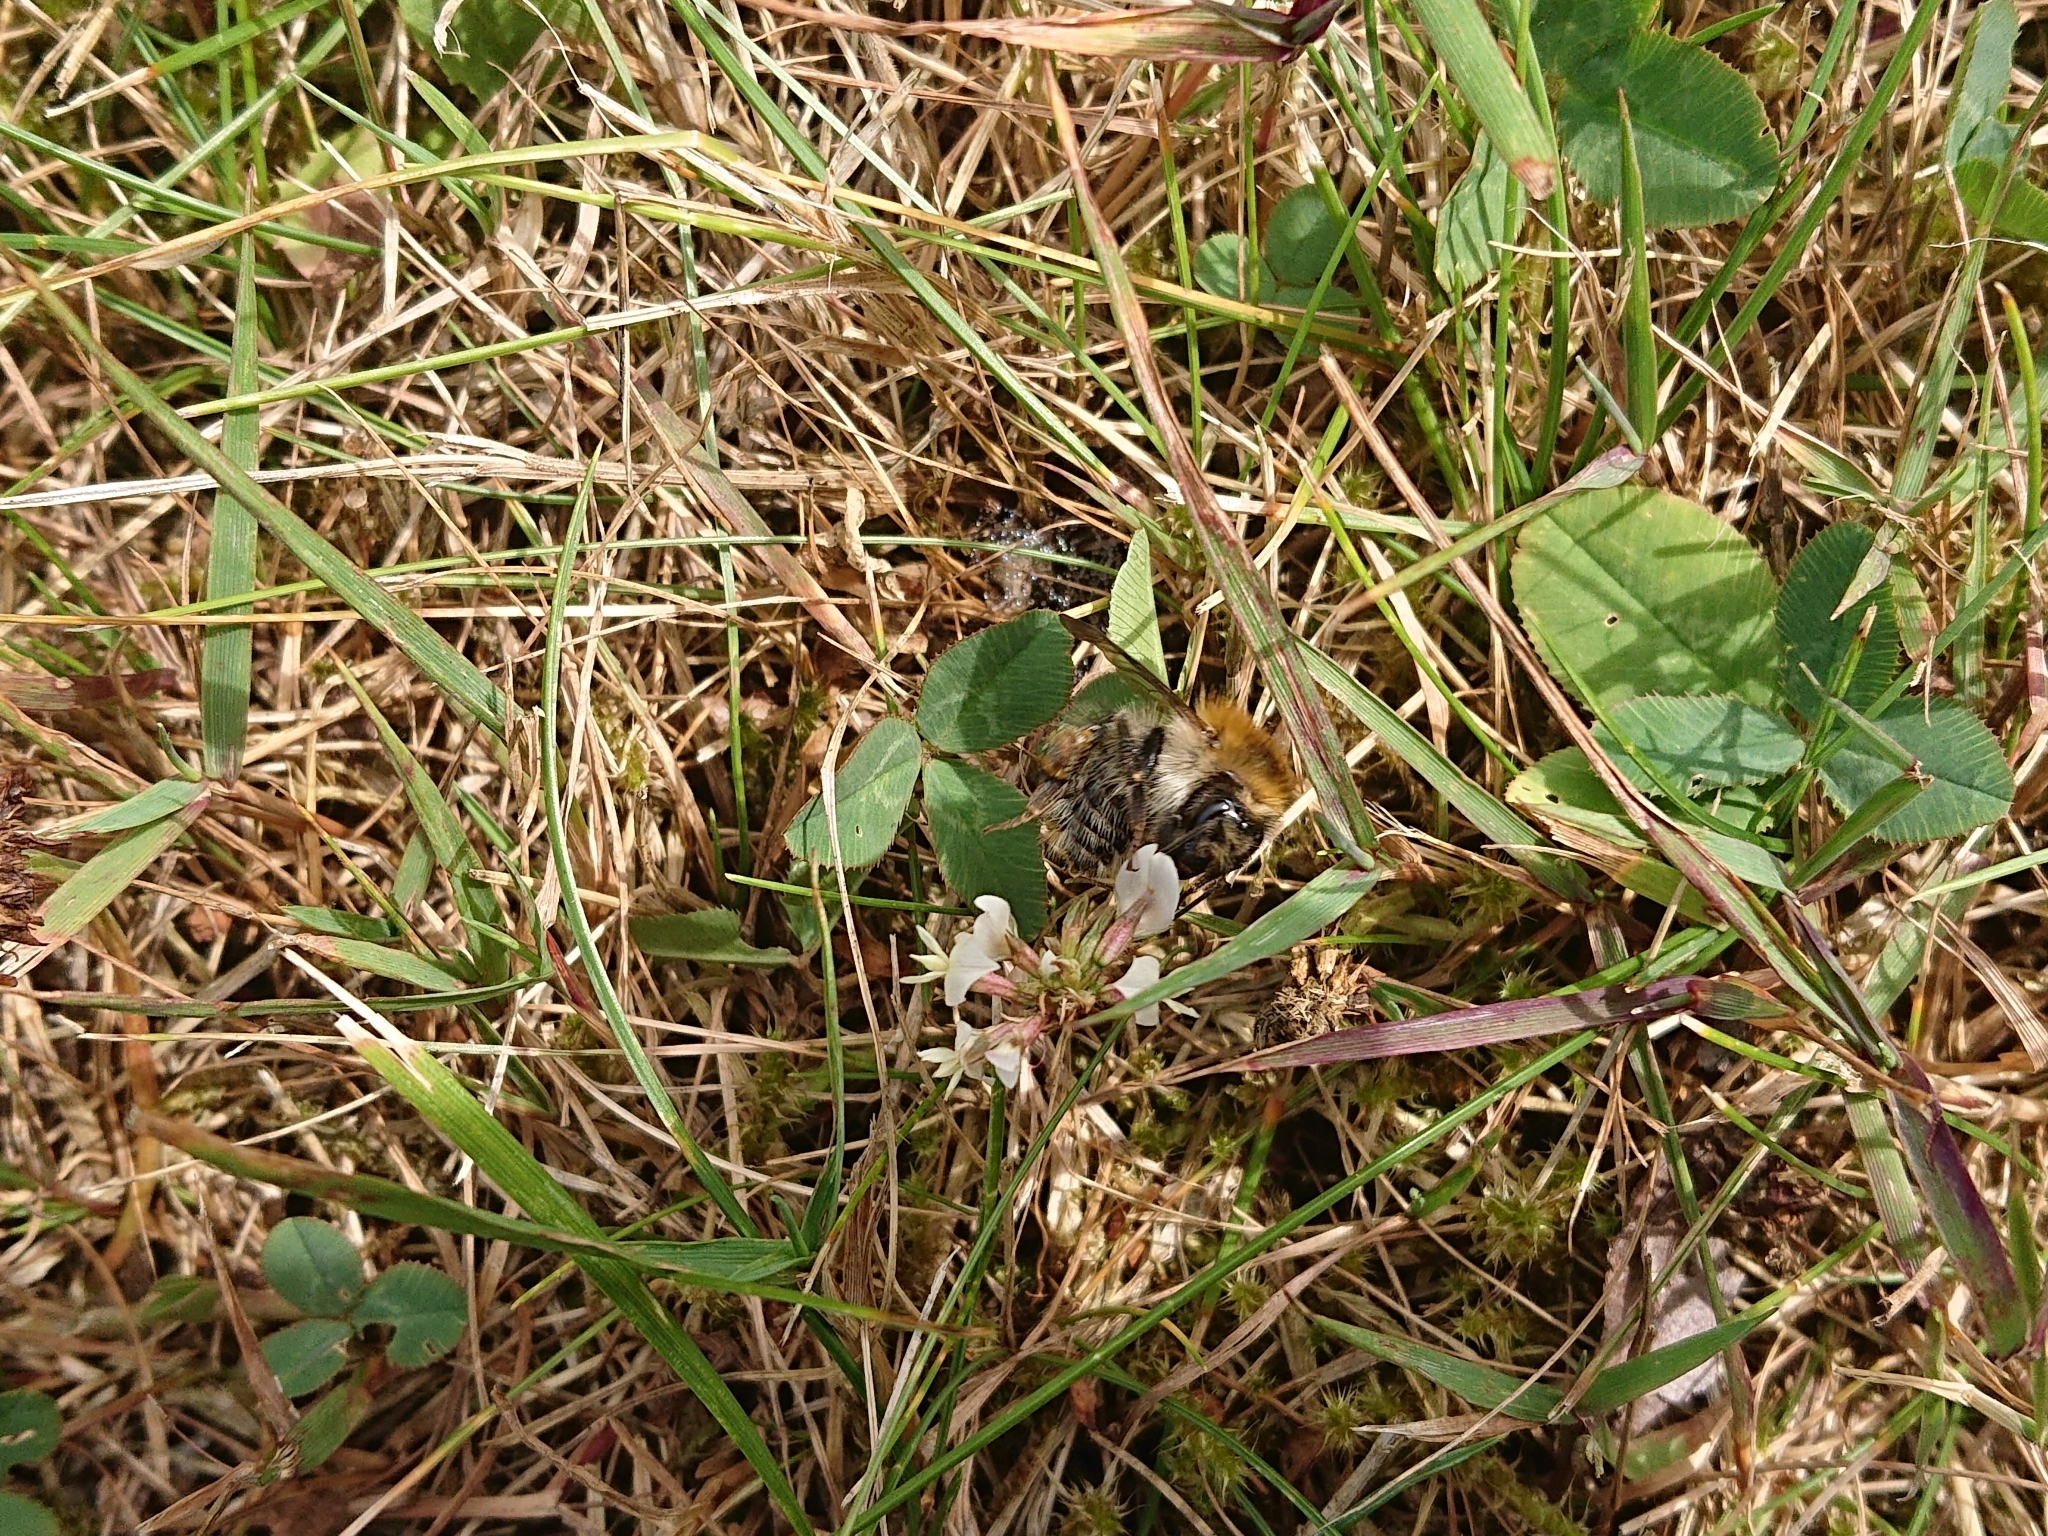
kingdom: Animalia
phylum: Arthropoda
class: Insecta
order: Hymenoptera
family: Apidae
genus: Bombus
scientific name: Bombus pascuorum
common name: Common carder bee
